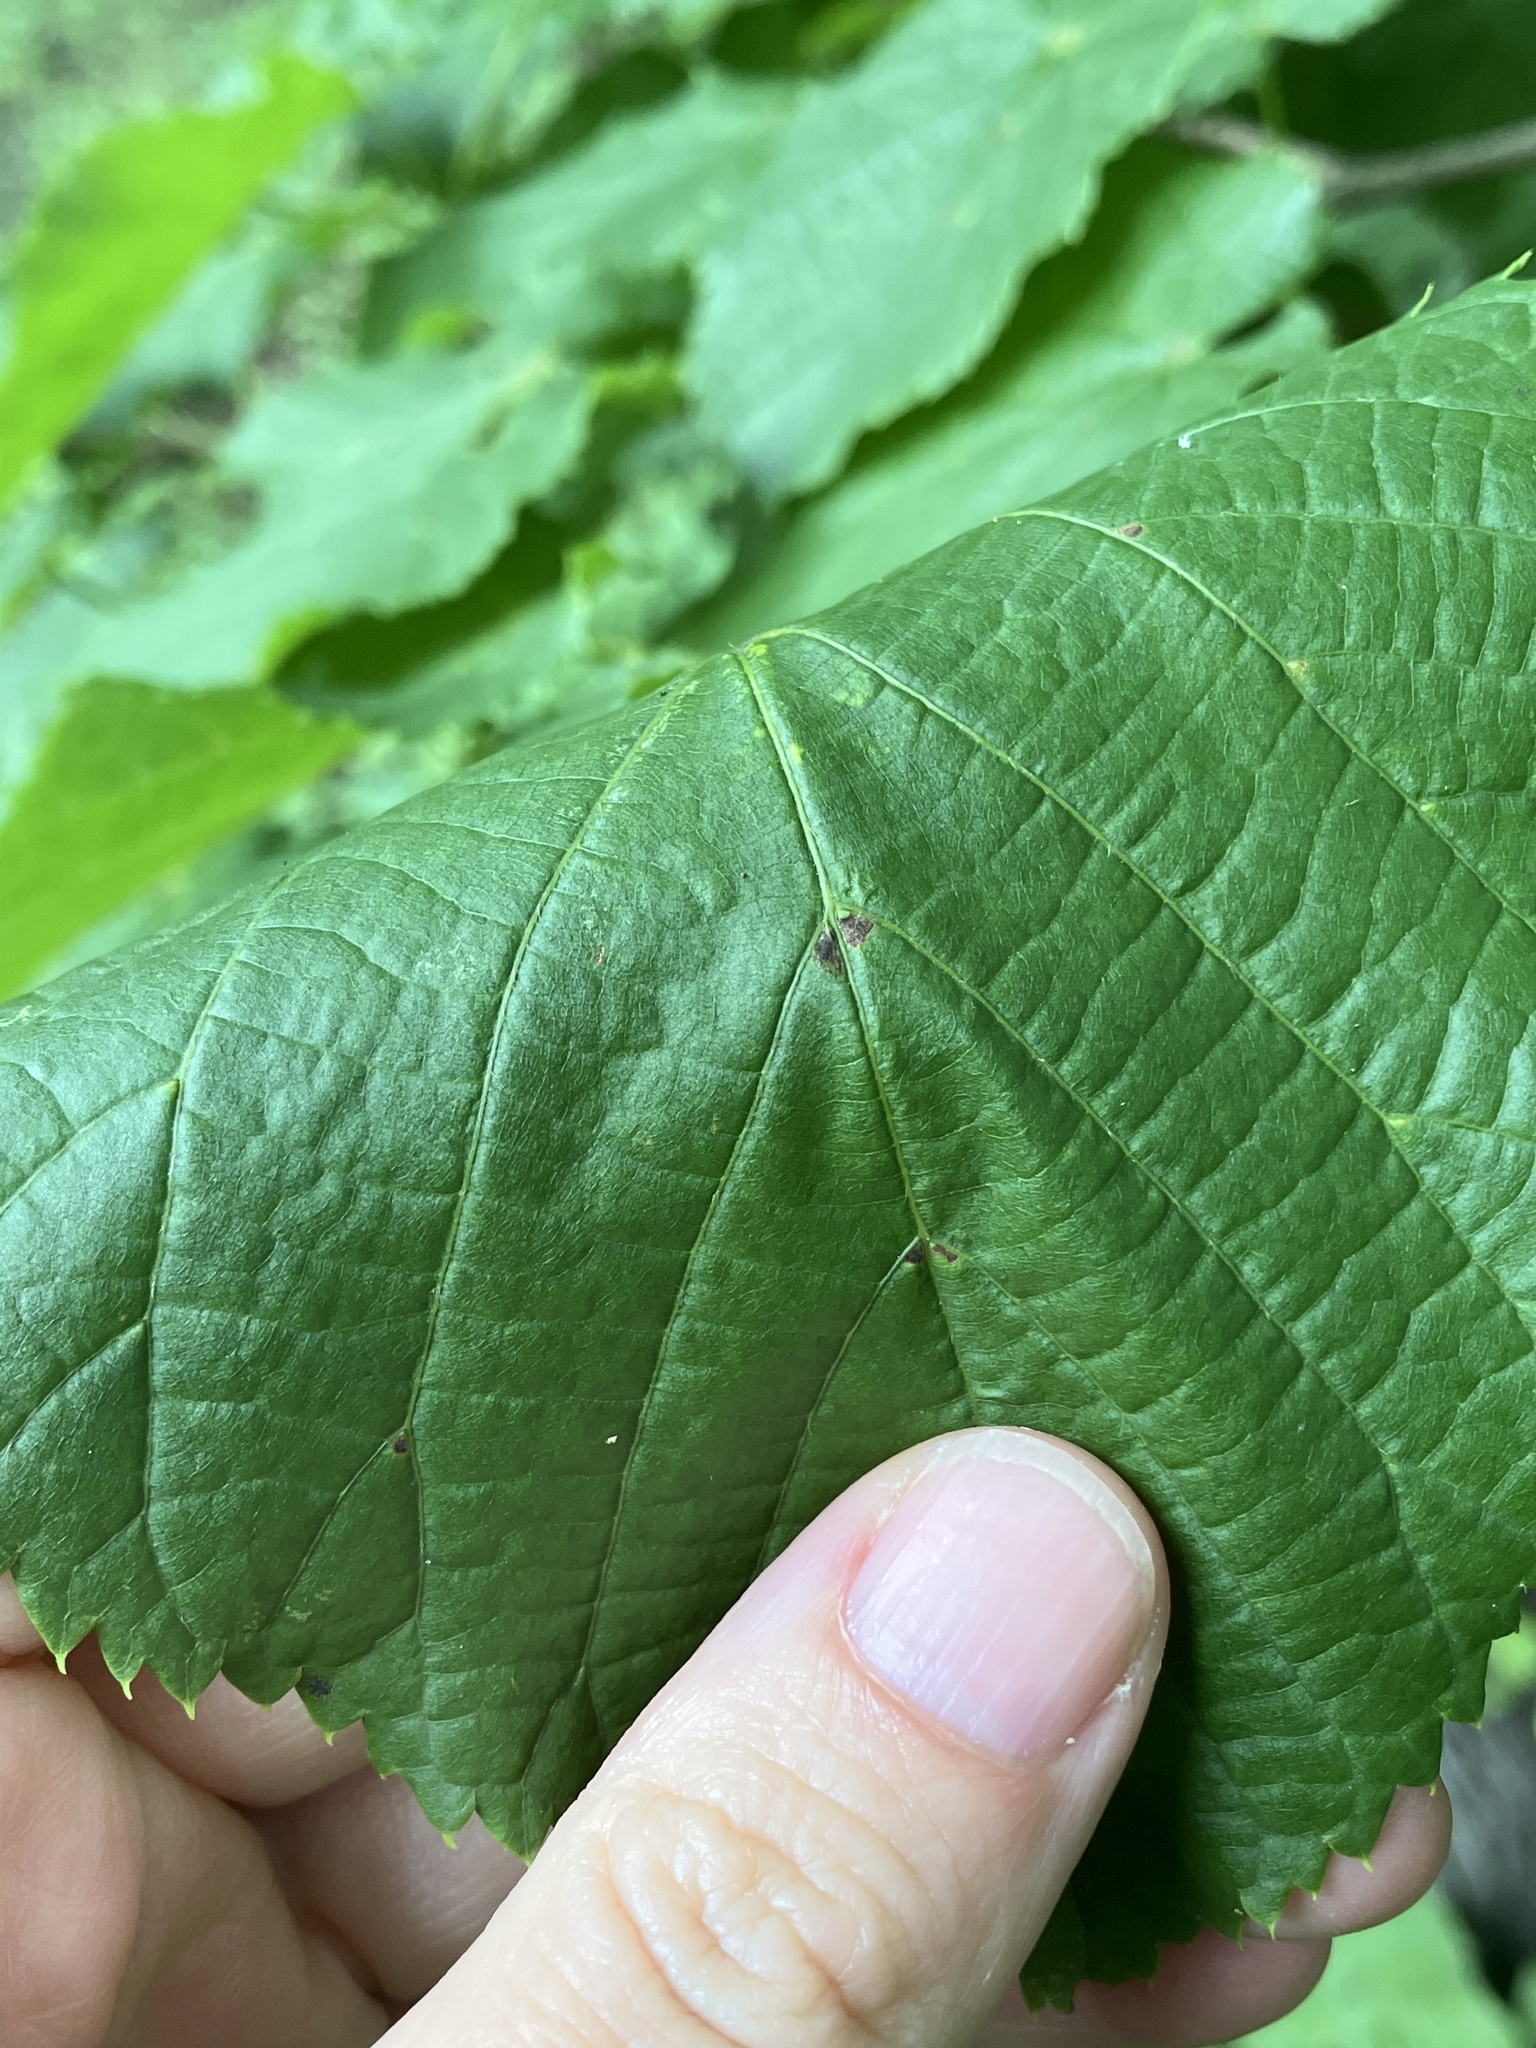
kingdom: Plantae
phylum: Tracheophyta
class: Magnoliopsida
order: Malvales
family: Malvaceae
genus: Tilia
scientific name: Tilia cordata
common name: Small-leaved lime
